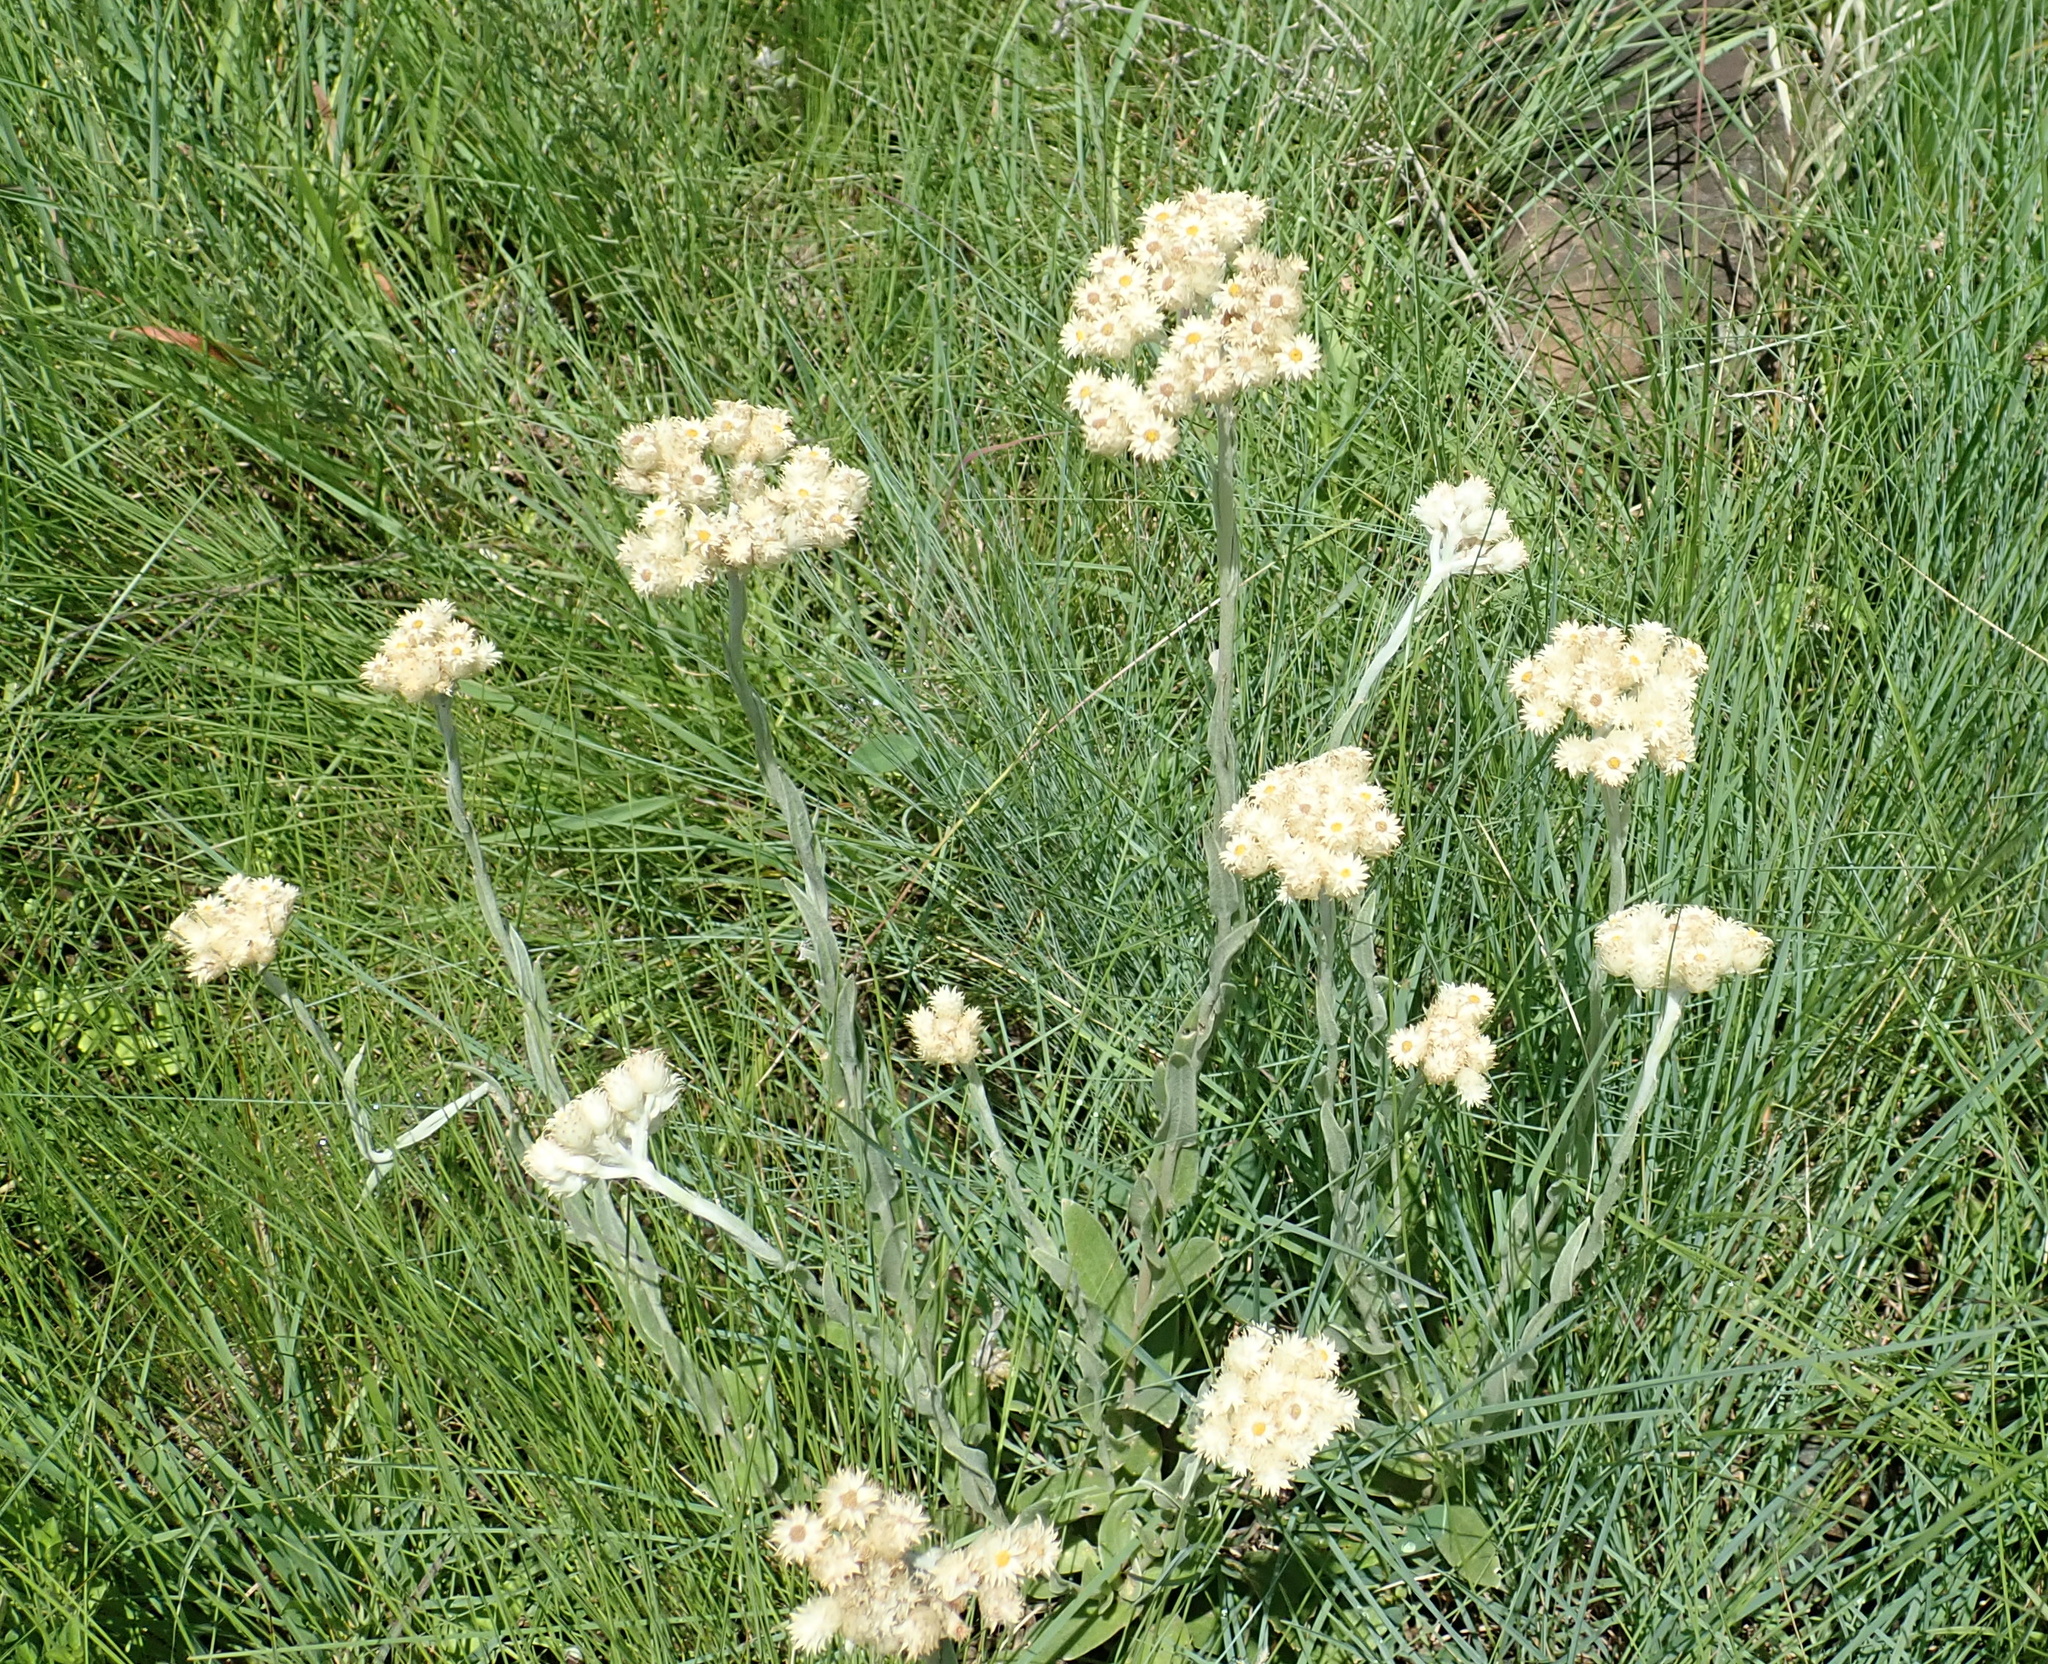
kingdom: Plantae
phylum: Tracheophyta
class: Magnoliopsida
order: Asterales
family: Asteraceae
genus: Helichrysum
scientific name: Helichrysum appendiculatum
